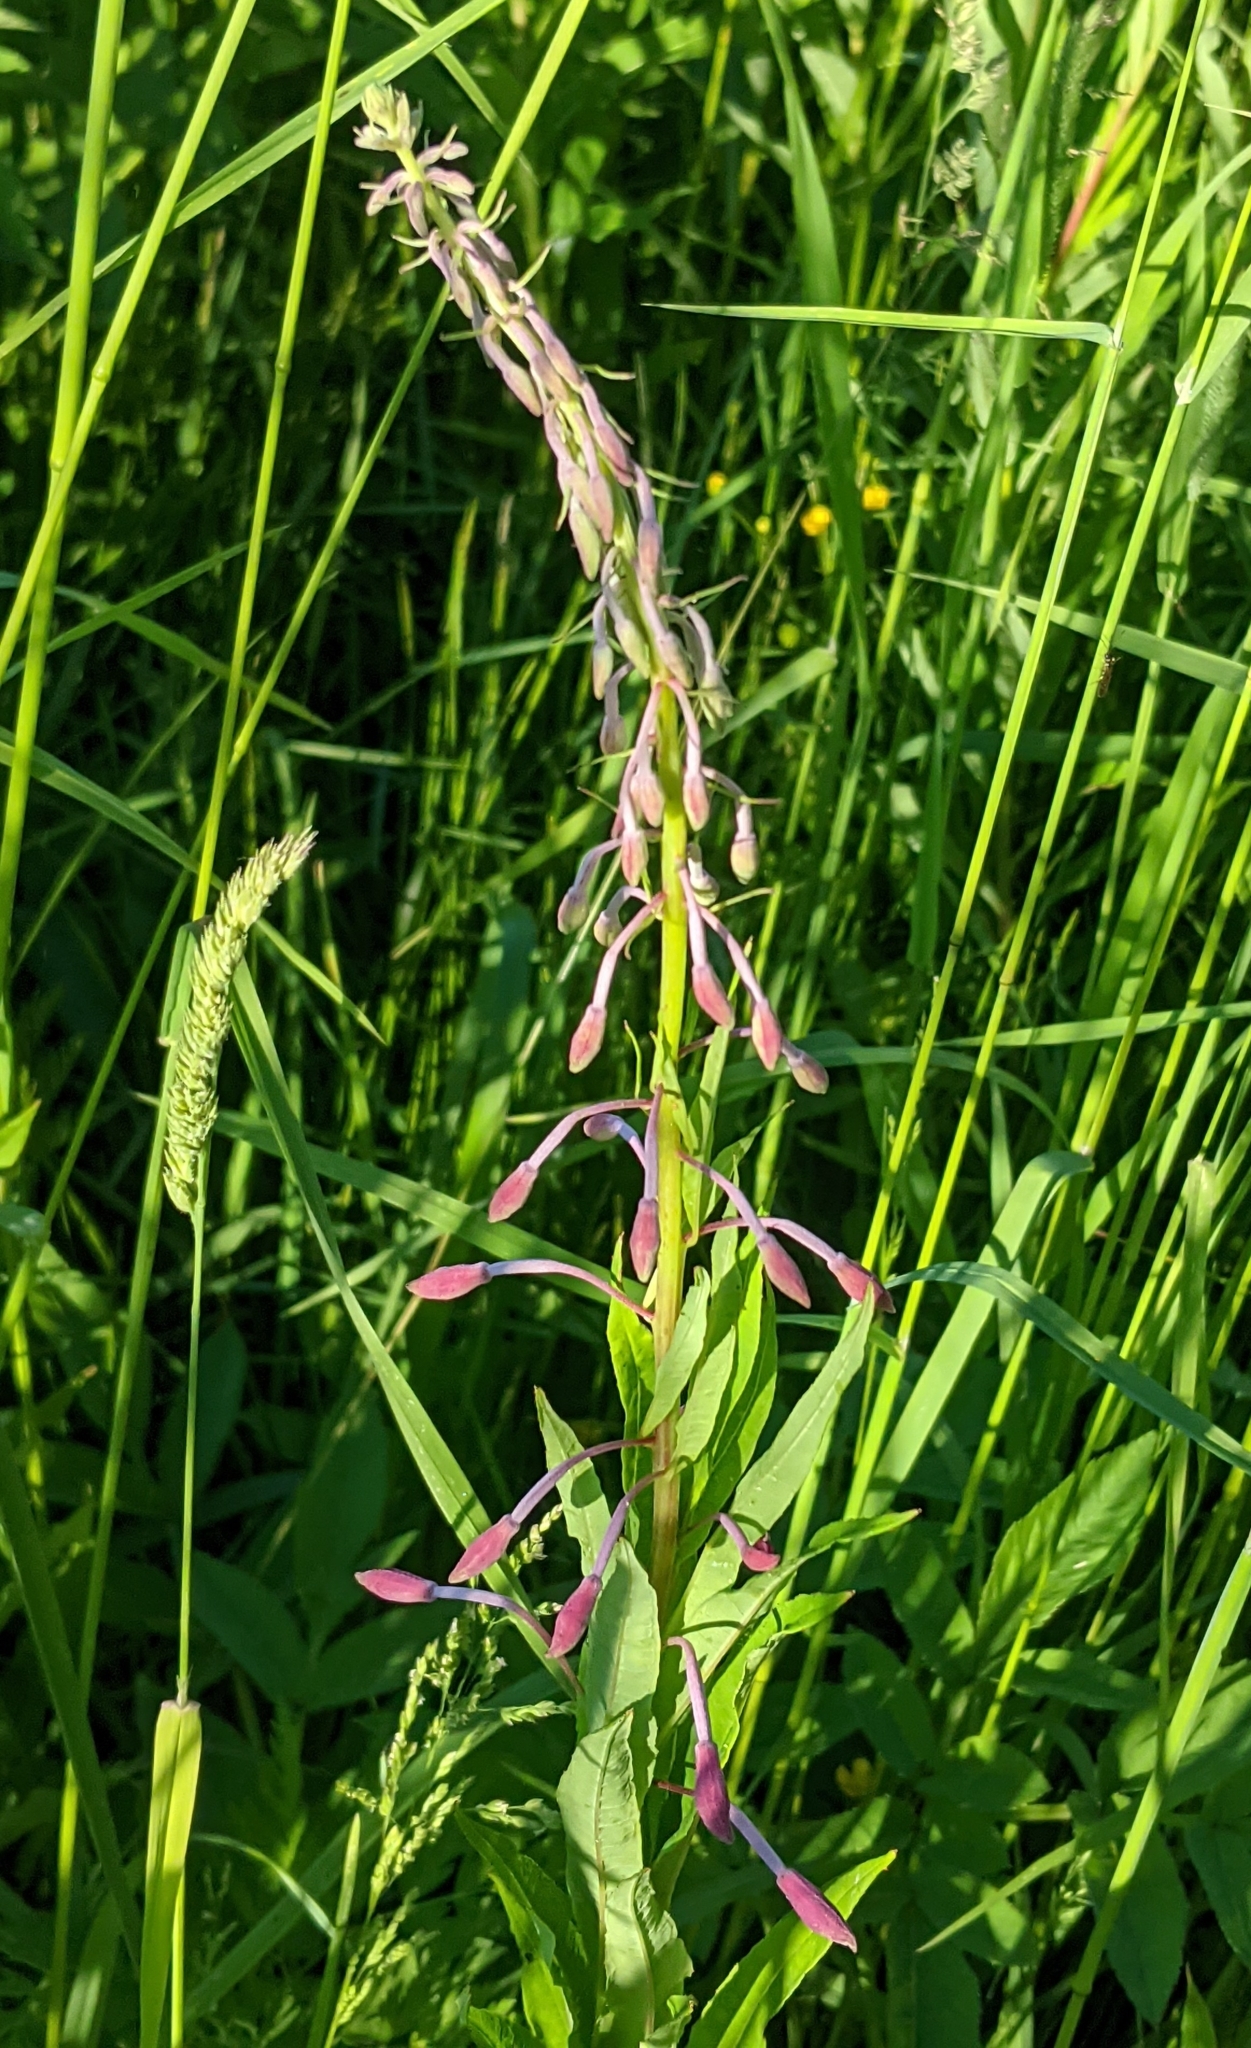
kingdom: Plantae
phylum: Tracheophyta
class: Magnoliopsida
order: Myrtales
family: Onagraceae
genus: Chamaenerion
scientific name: Chamaenerion angustifolium
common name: Fireweed
